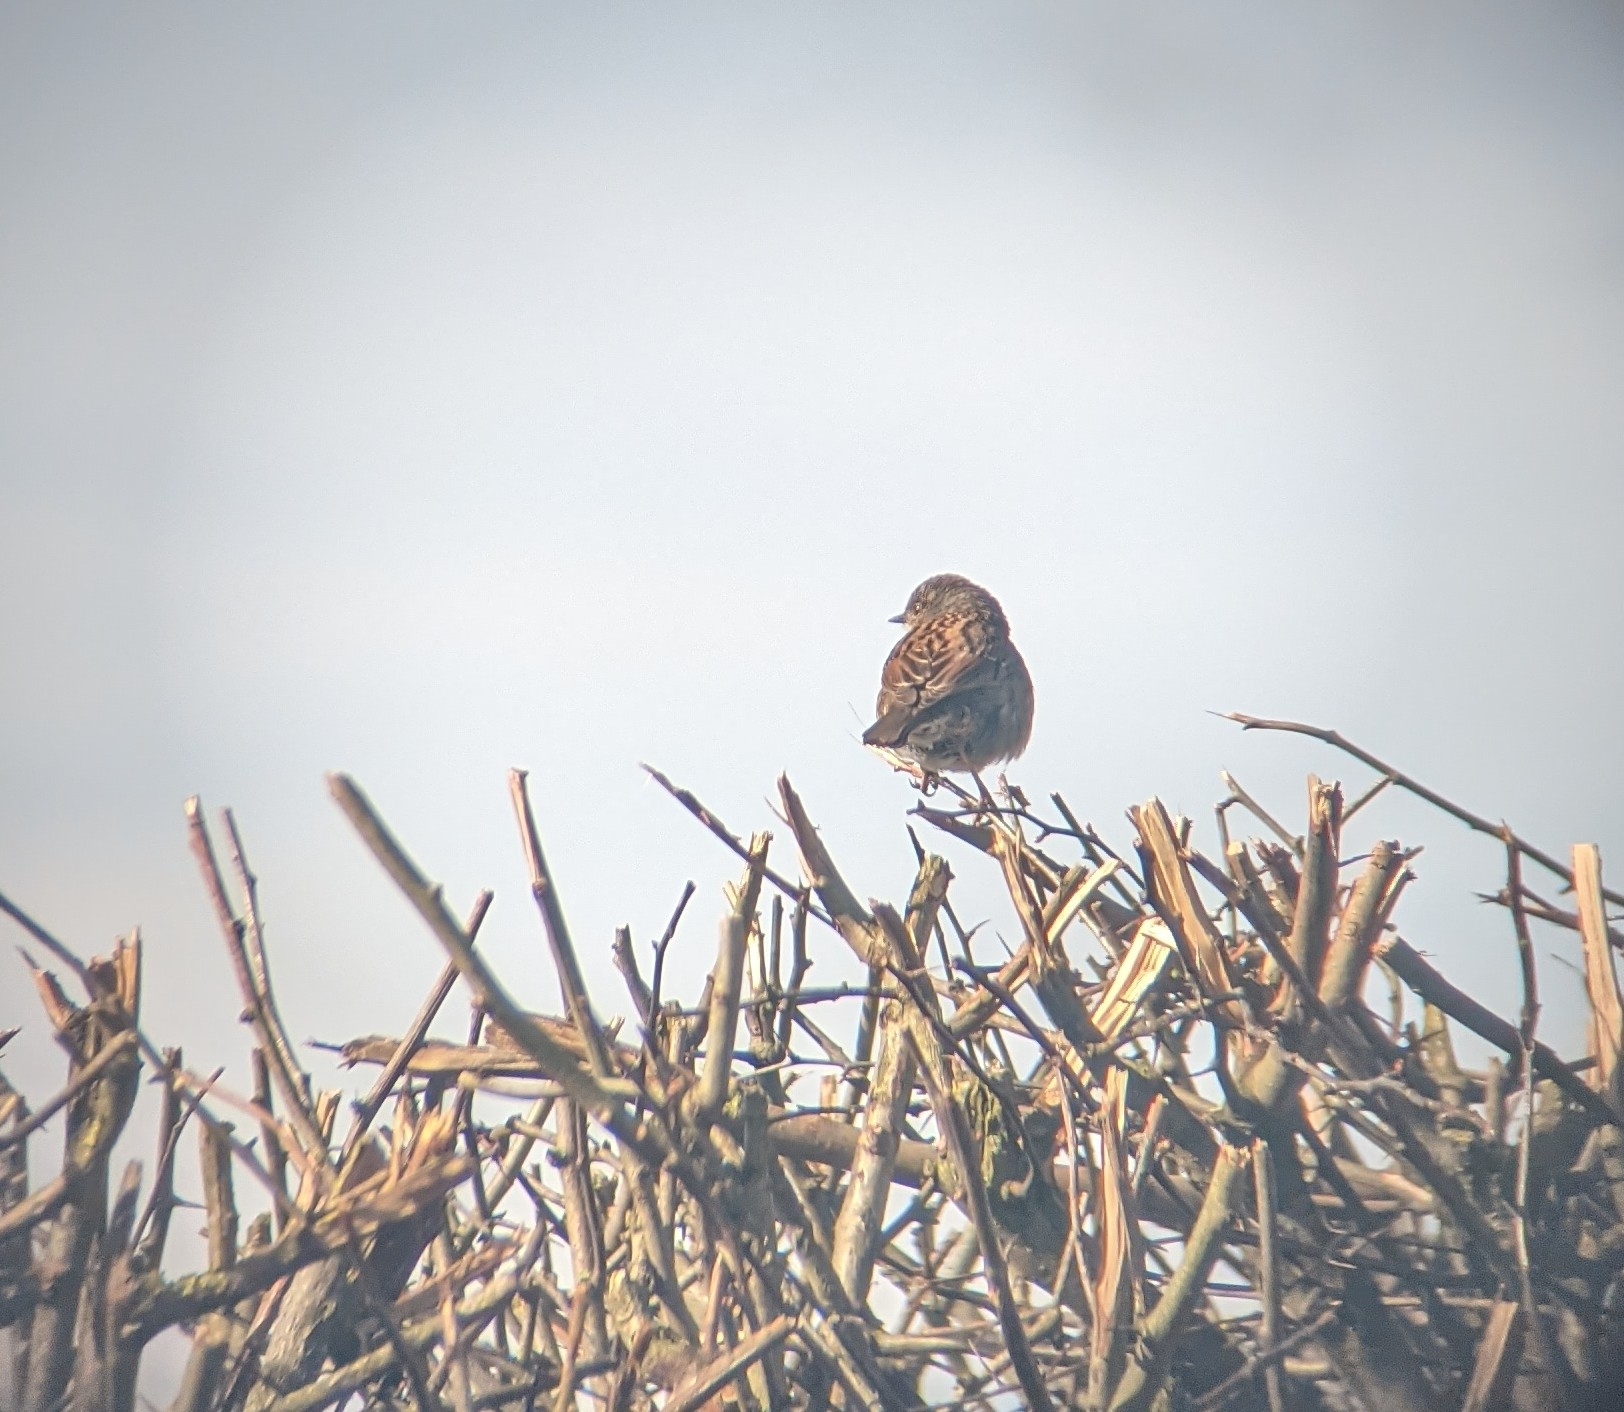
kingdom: Animalia
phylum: Chordata
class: Aves
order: Passeriformes
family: Prunellidae
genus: Prunella
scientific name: Prunella modularis
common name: Dunnock
